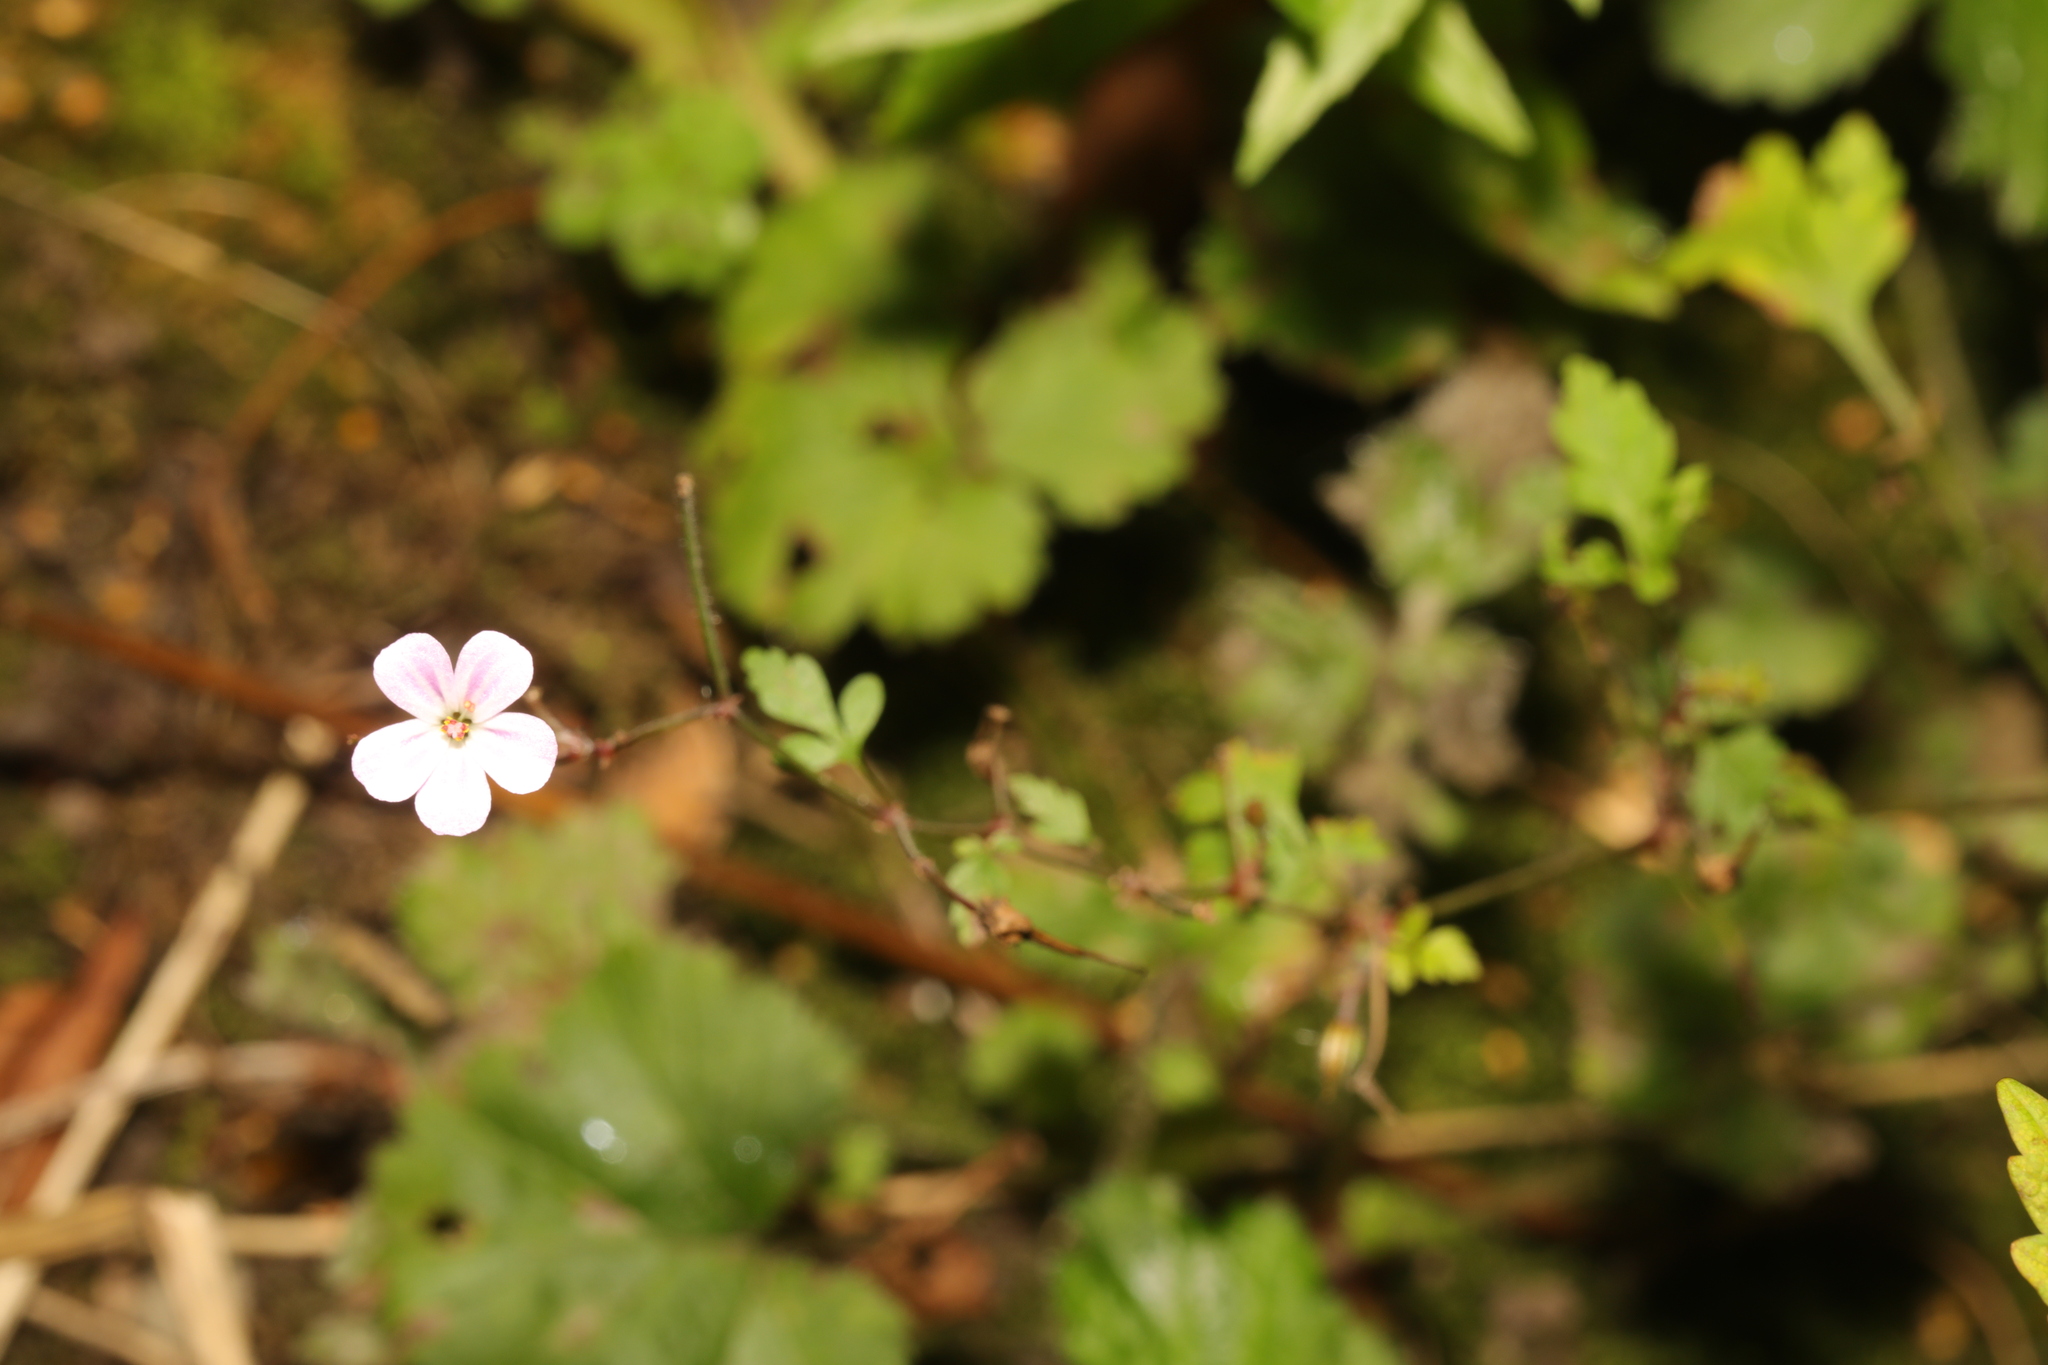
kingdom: Plantae
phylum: Tracheophyta
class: Magnoliopsida
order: Geraniales
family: Geraniaceae
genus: Geranium
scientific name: Geranium robertianum
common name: Herb-robert
